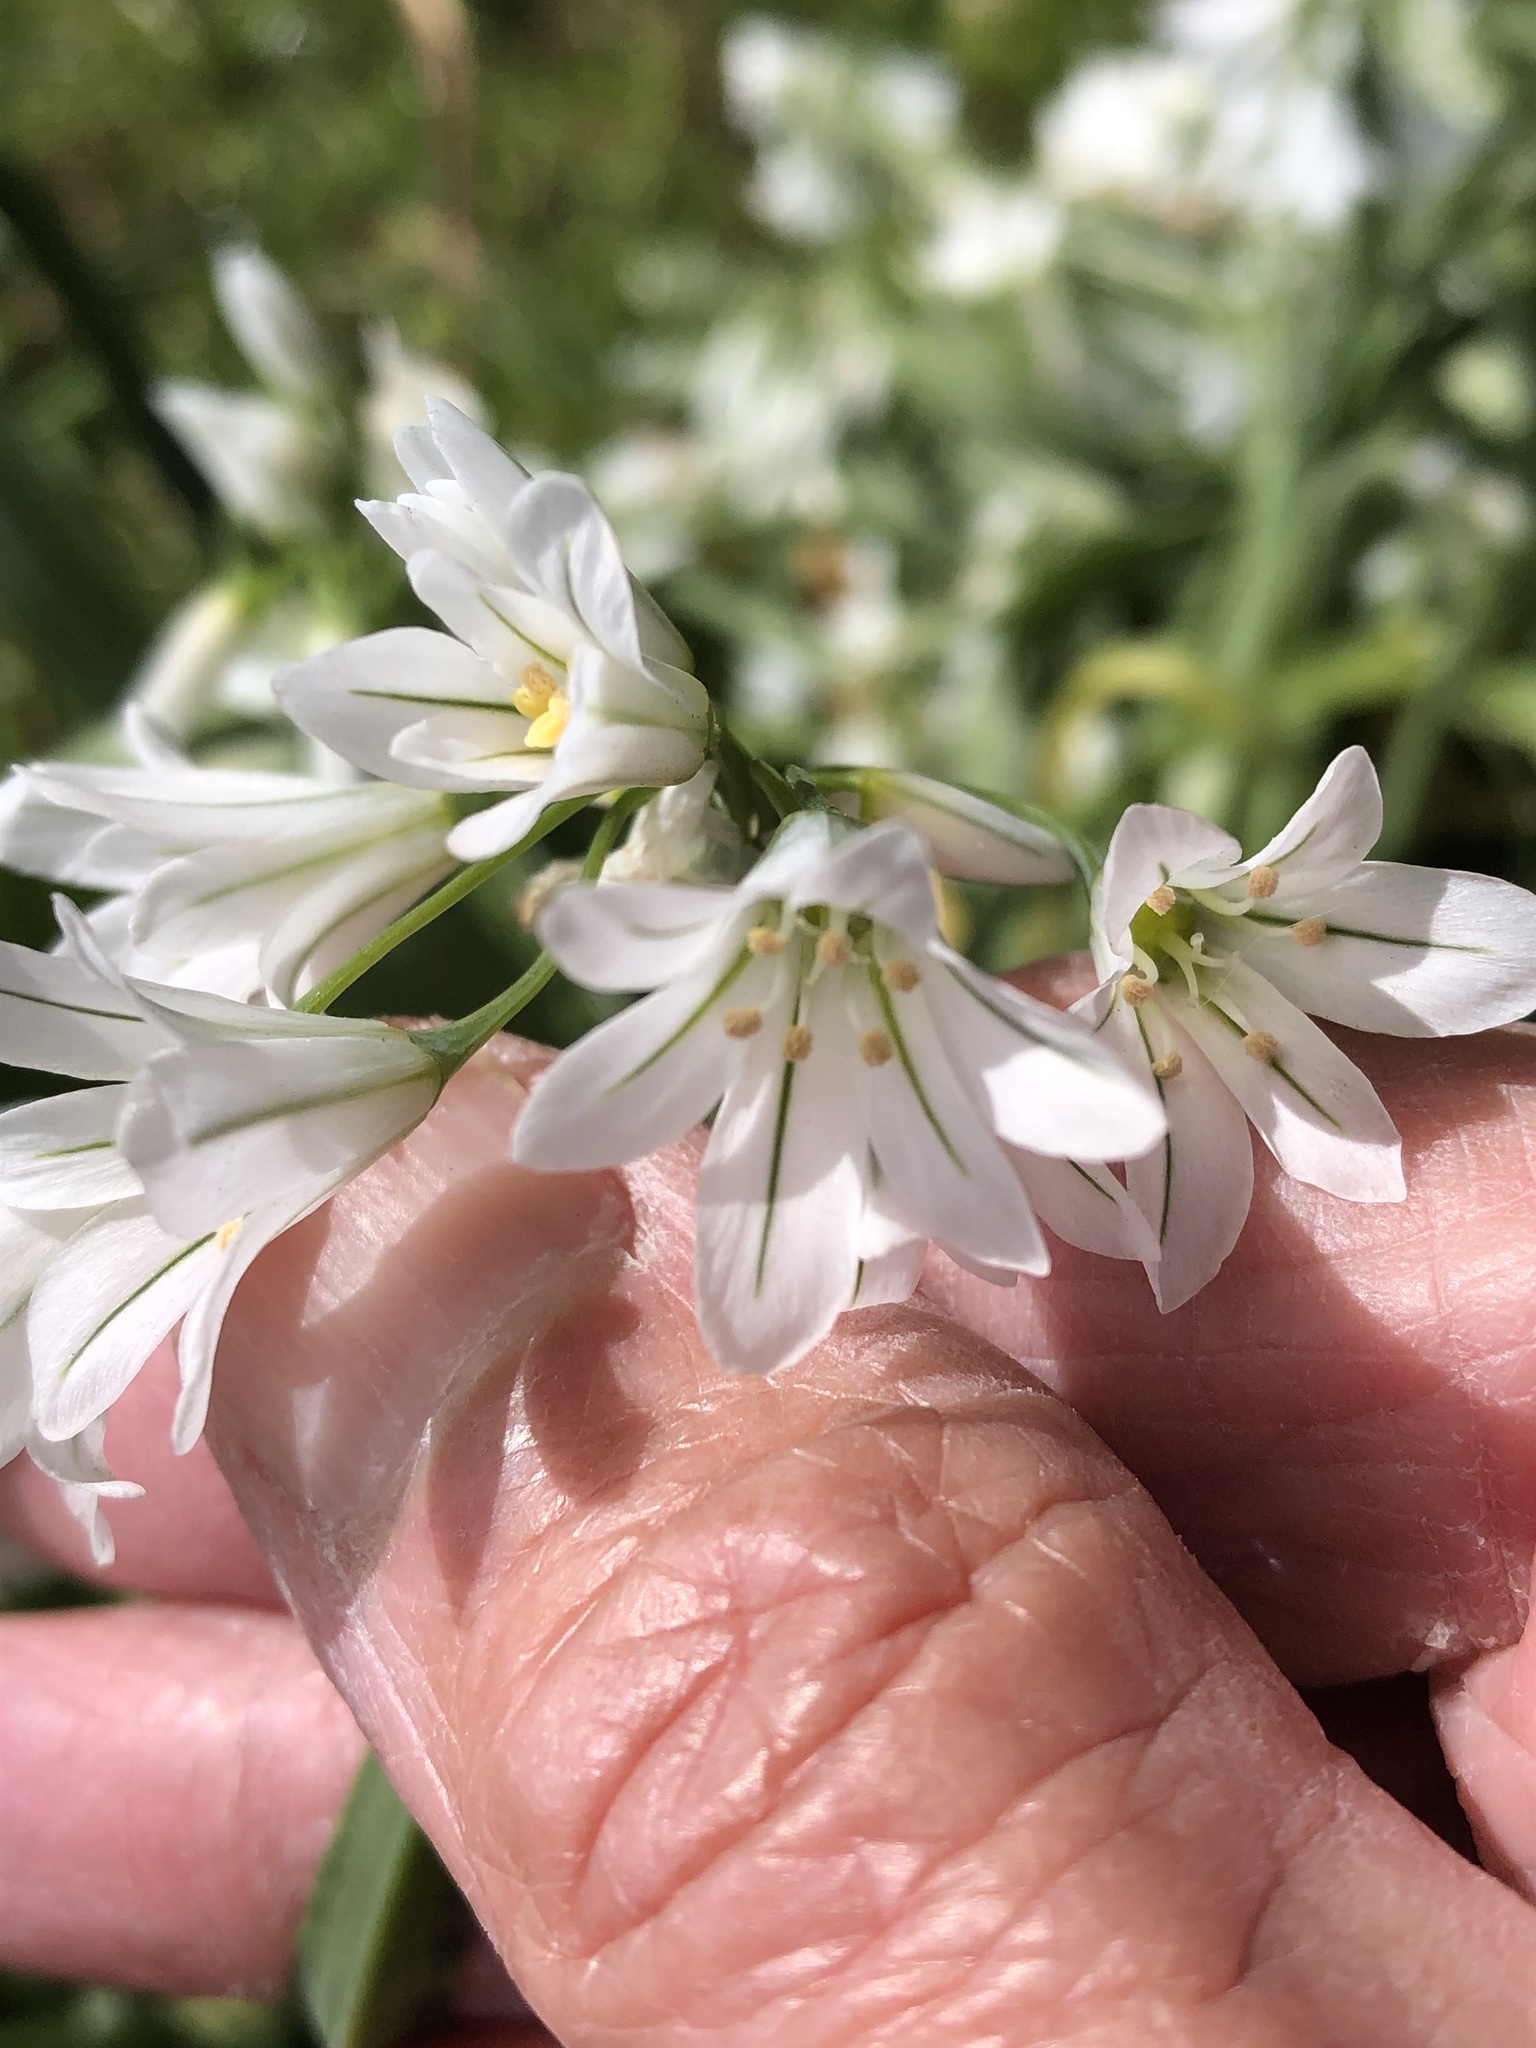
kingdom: Plantae
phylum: Tracheophyta
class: Liliopsida
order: Asparagales
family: Amaryllidaceae
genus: Allium
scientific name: Allium triquetrum
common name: Three-cornered garlic
